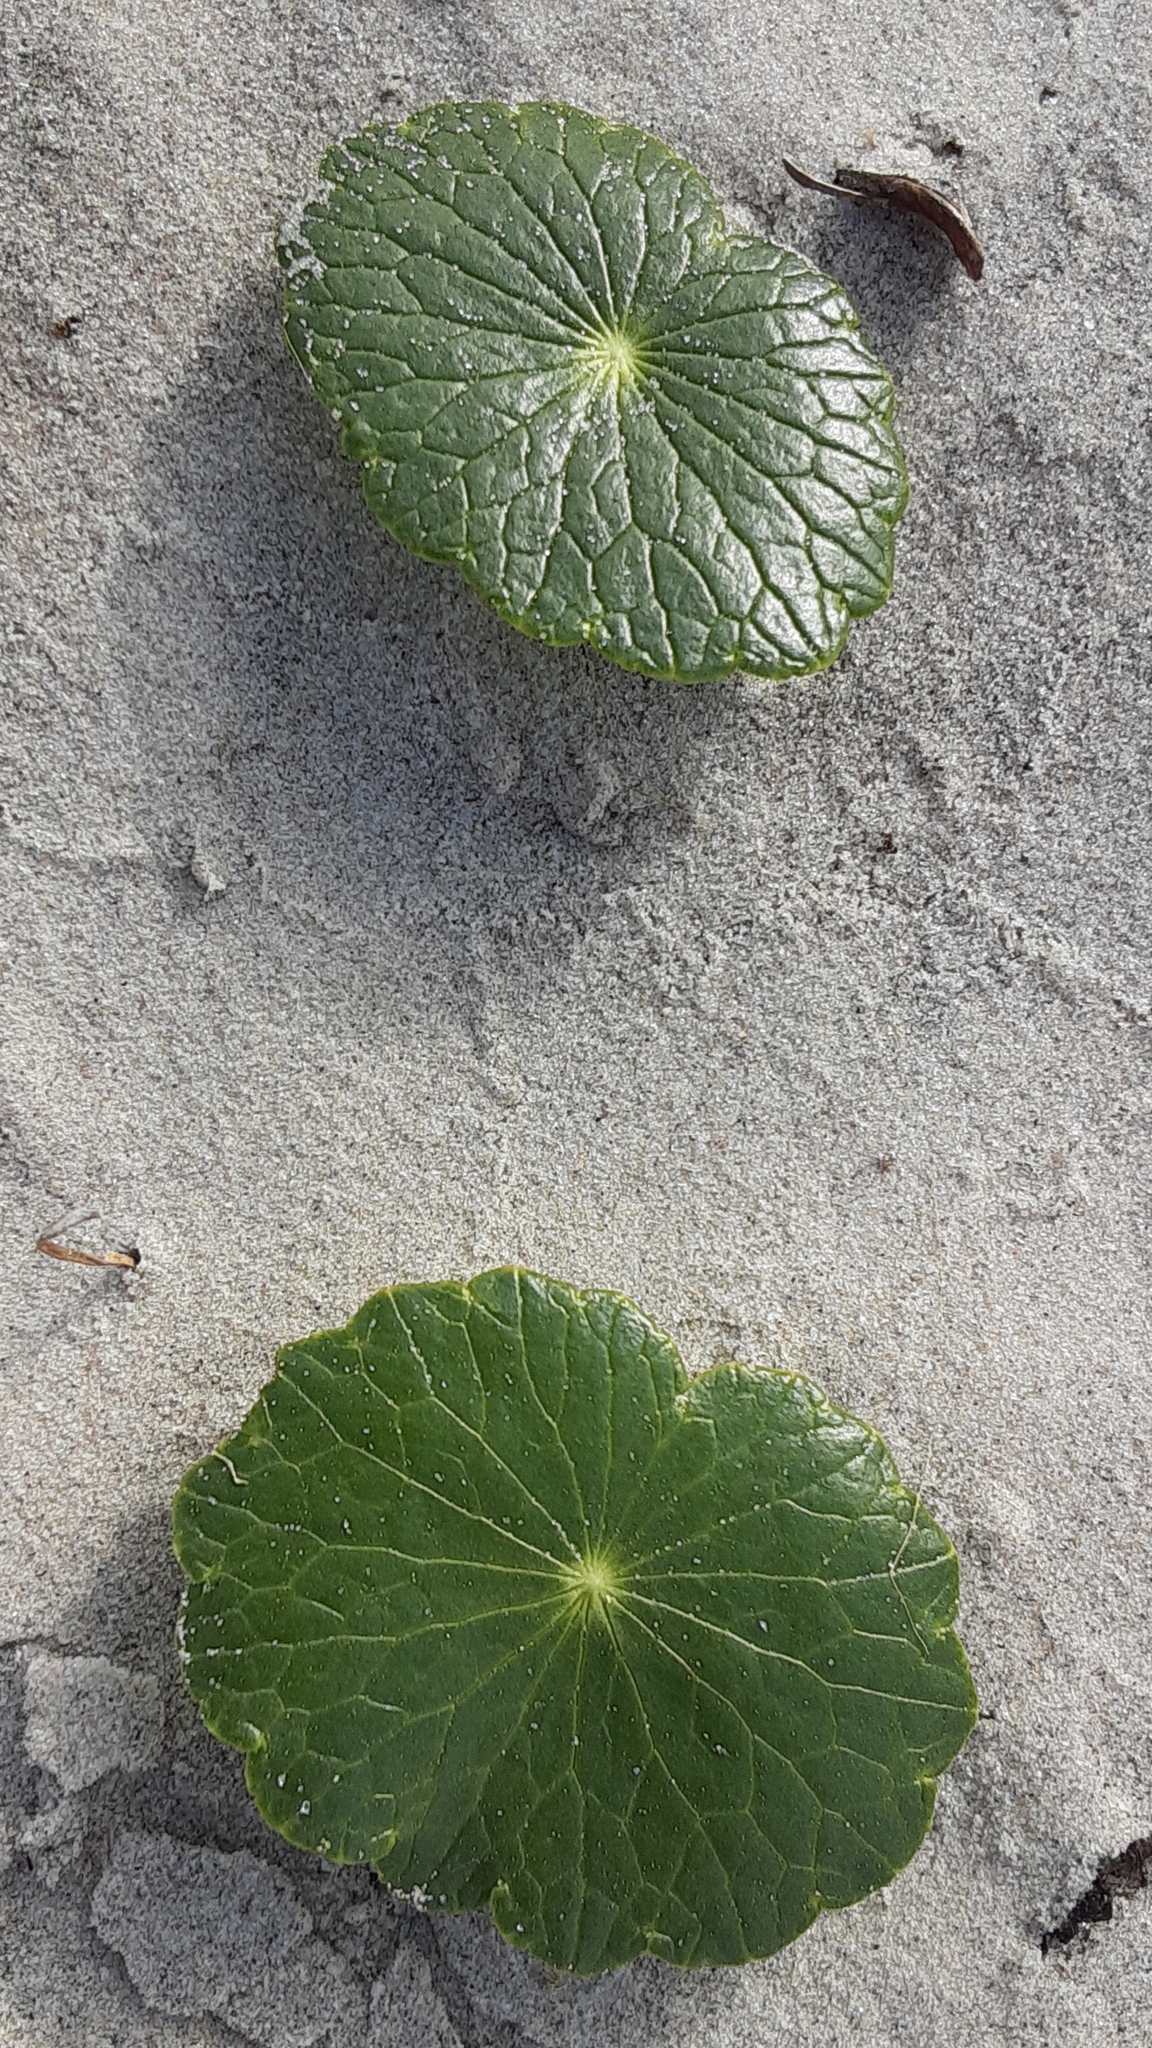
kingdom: Plantae
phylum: Tracheophyta
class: Magnoliopsida
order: Apiales
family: Araliaceae
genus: Hydrocotyle
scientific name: Hydrocotyle bonariensis
